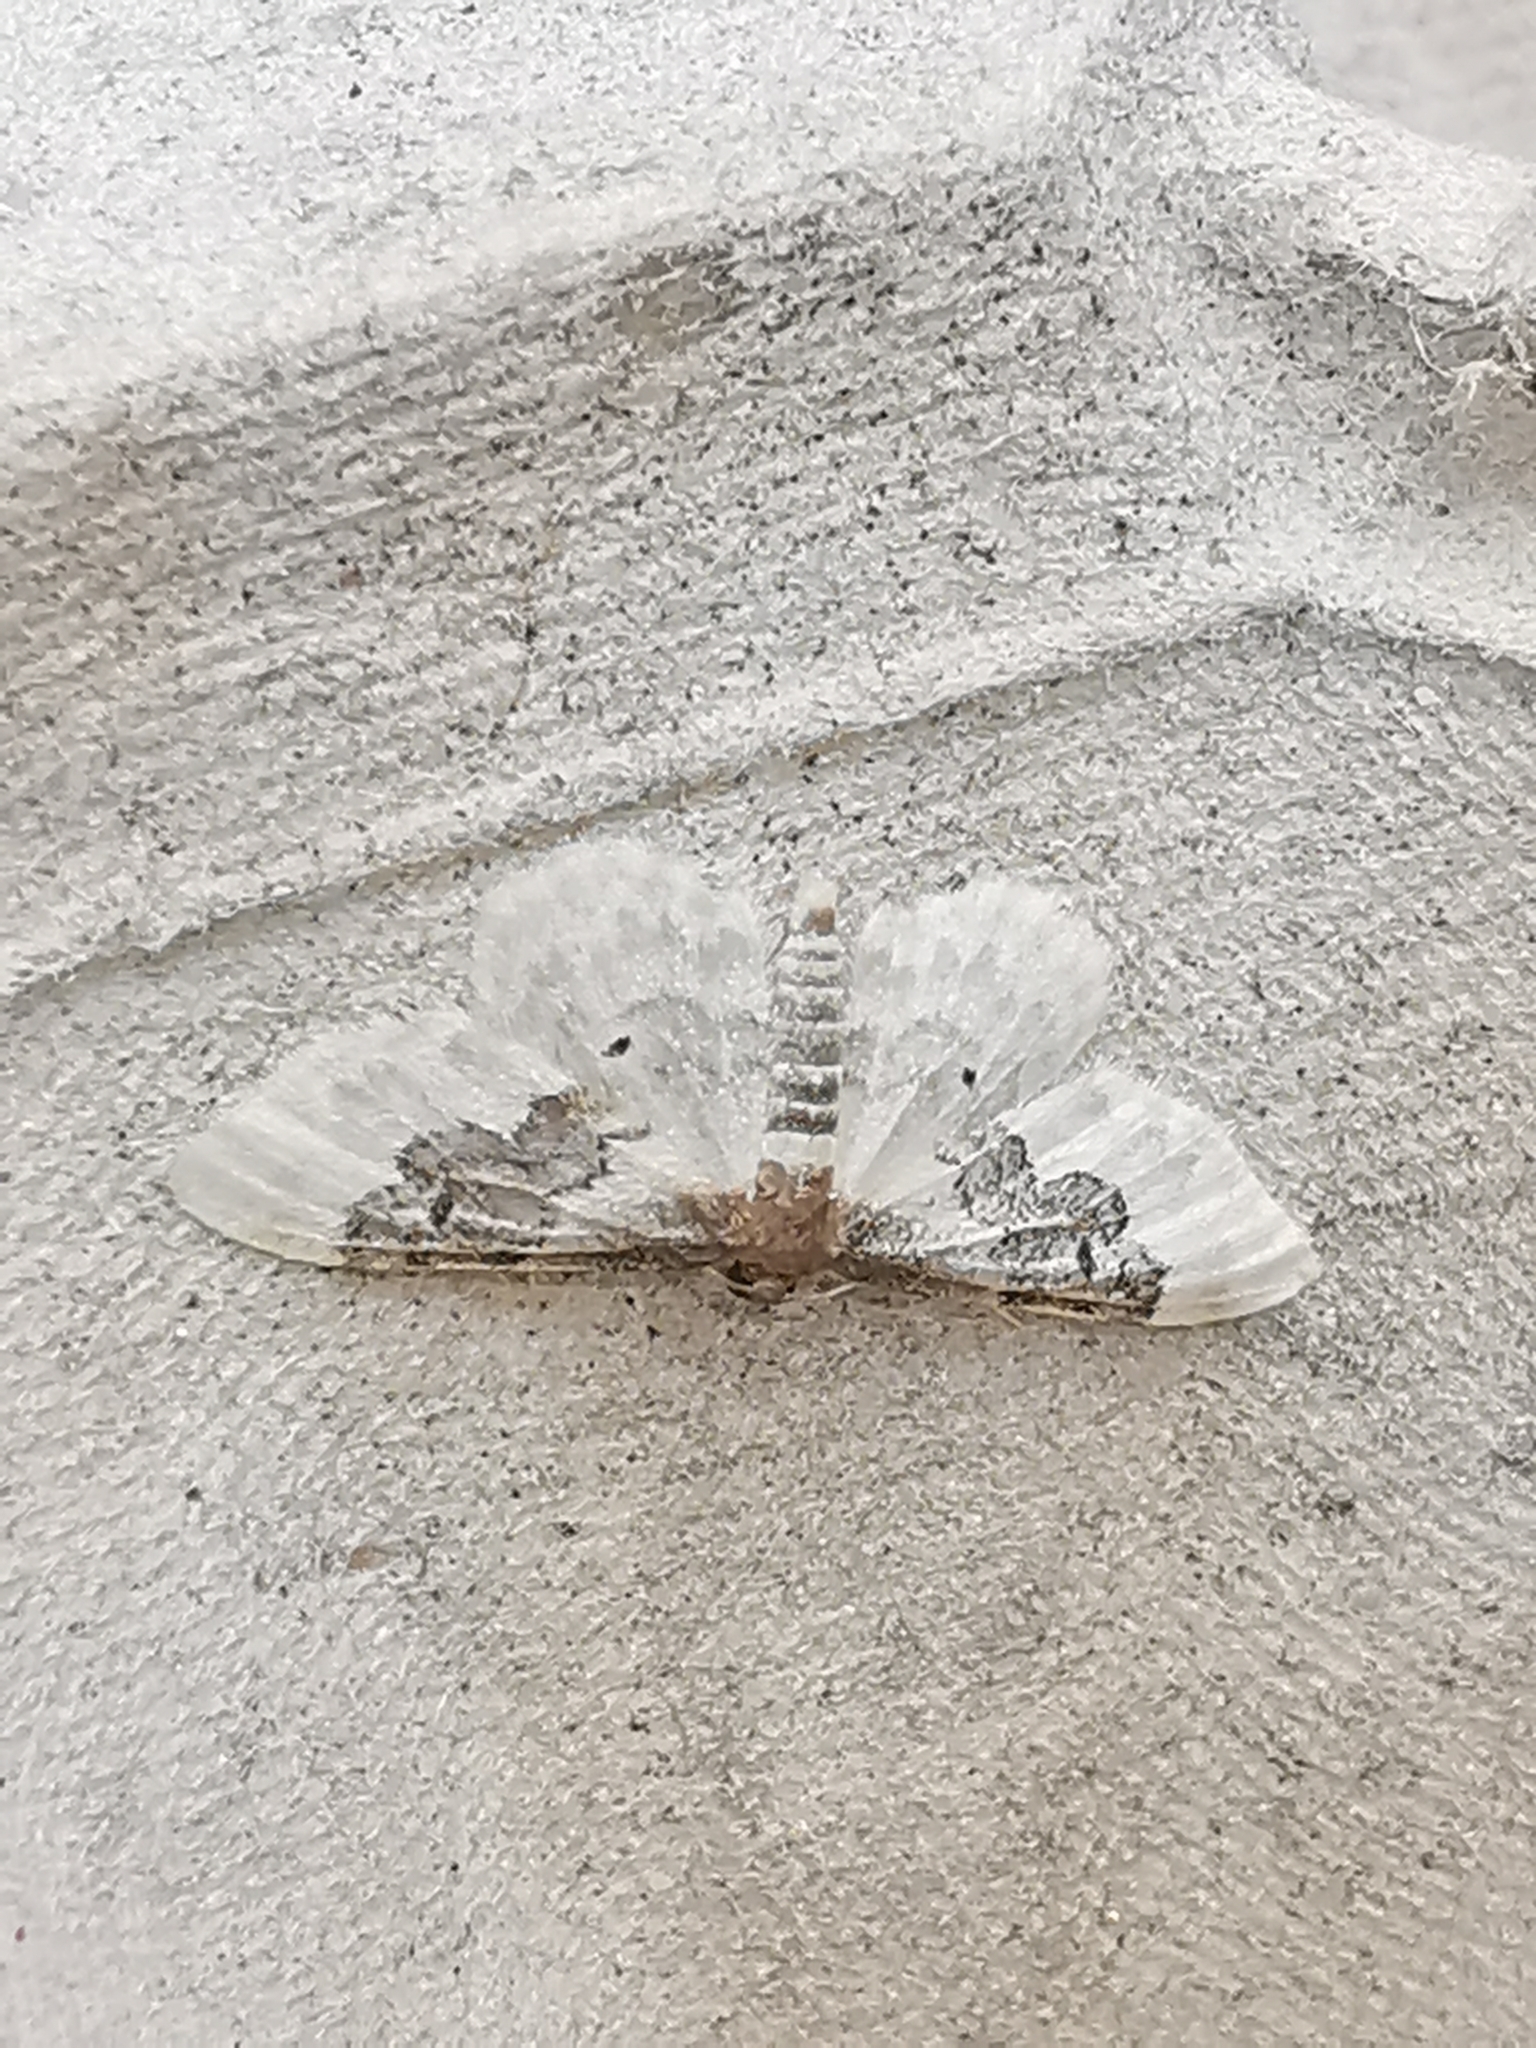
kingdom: Animalia
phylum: Arthropoda
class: Insecta
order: Lepidoptera
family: Geometridae
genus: Idaea
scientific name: Idaea rusticata
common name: Least carpet
